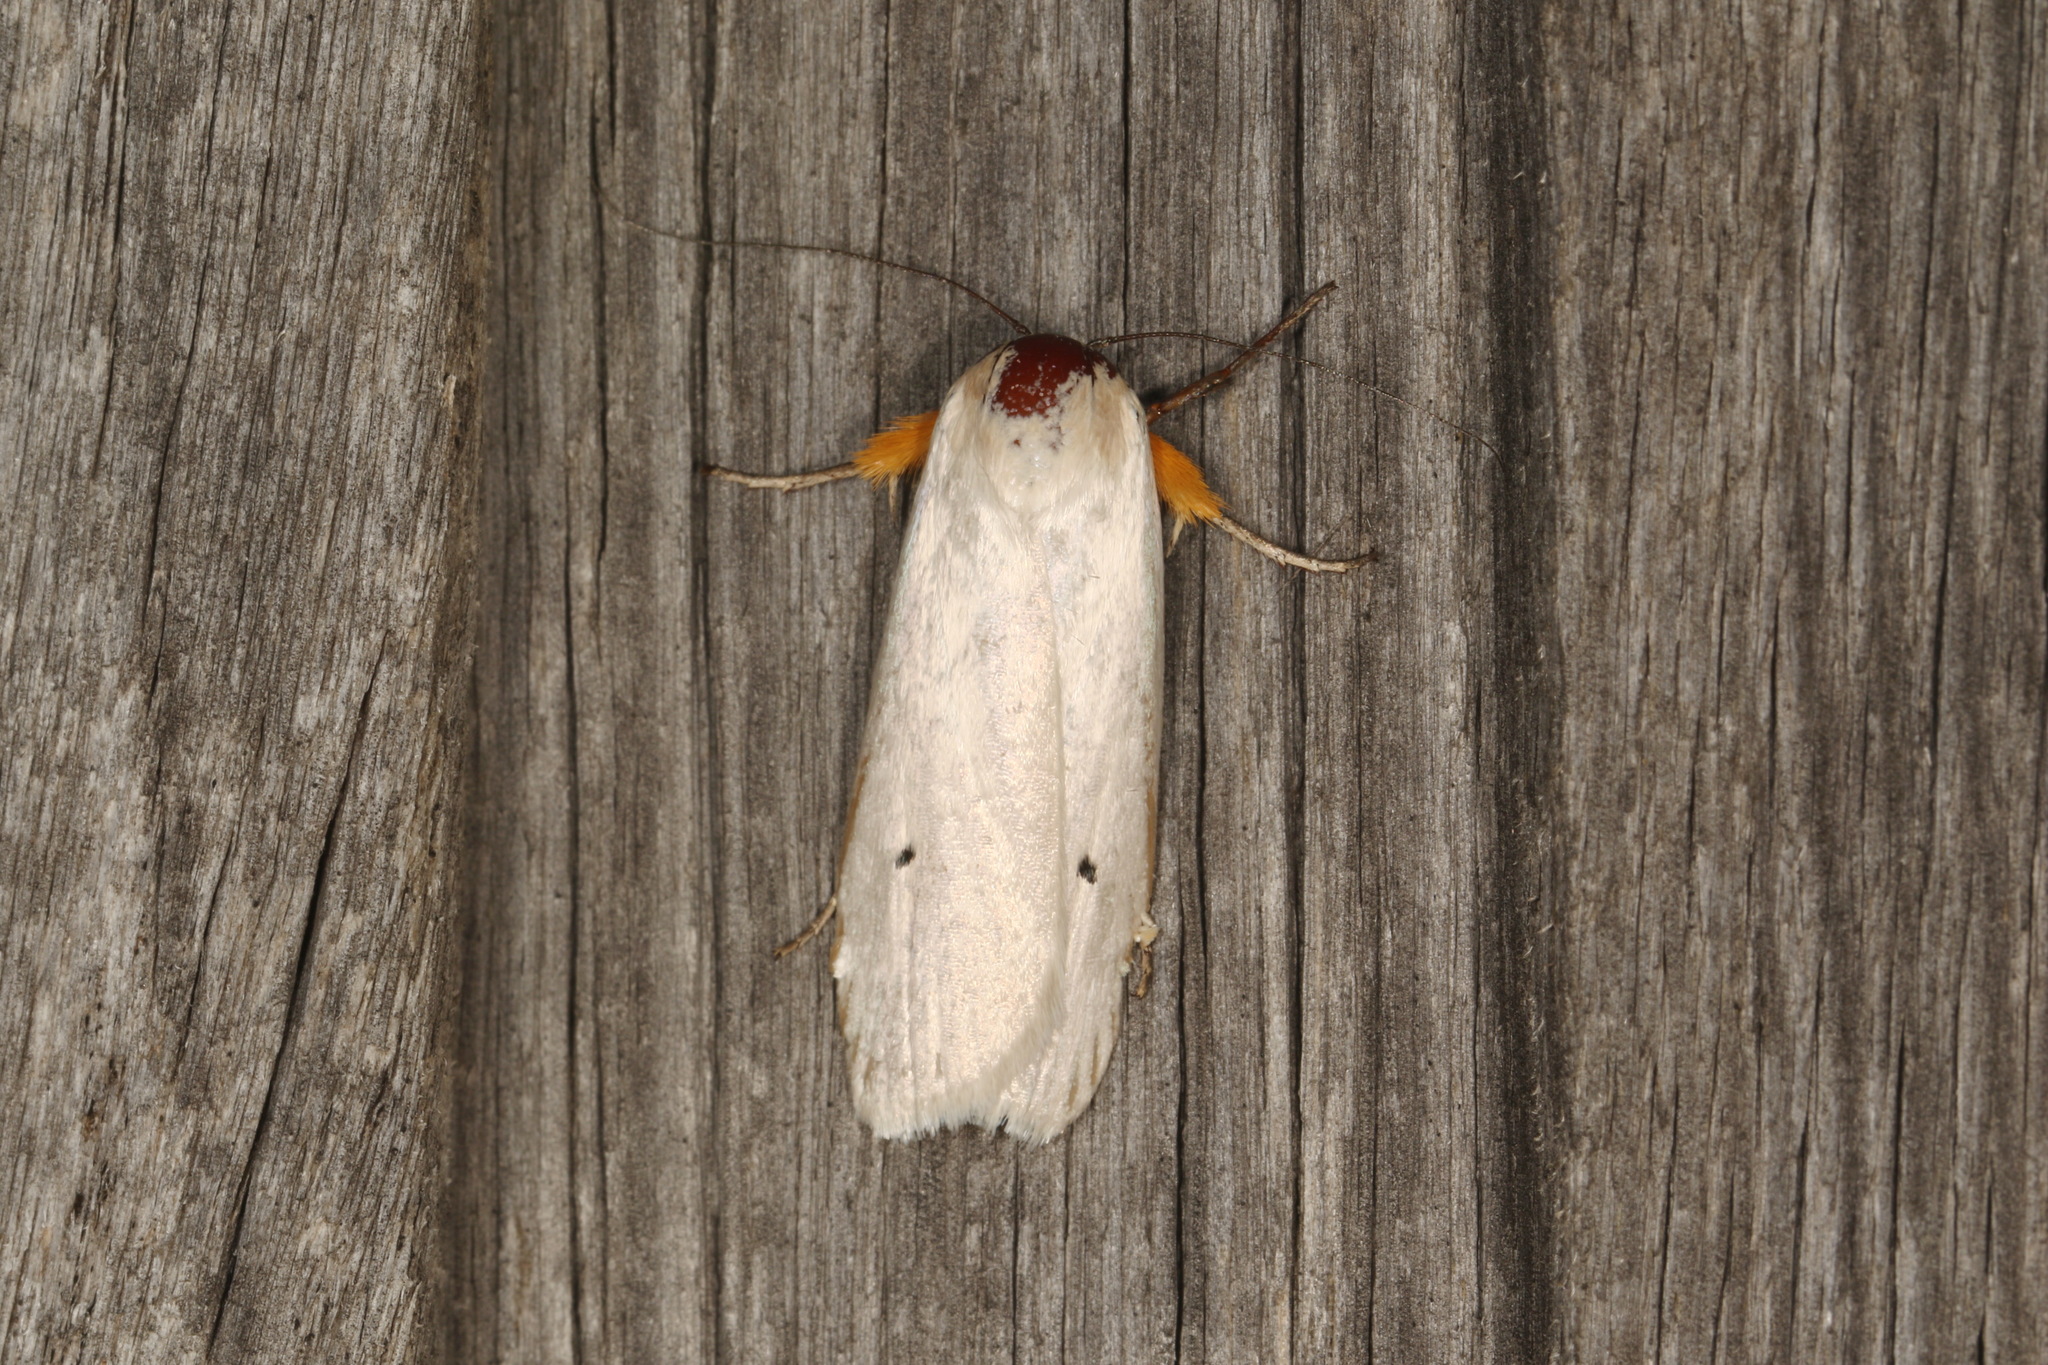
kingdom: Animalia
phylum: Arthropoda
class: Insecta
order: Lepidoptera
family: Xyloryctidae
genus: Maroga
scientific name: Maroga melanostigma
